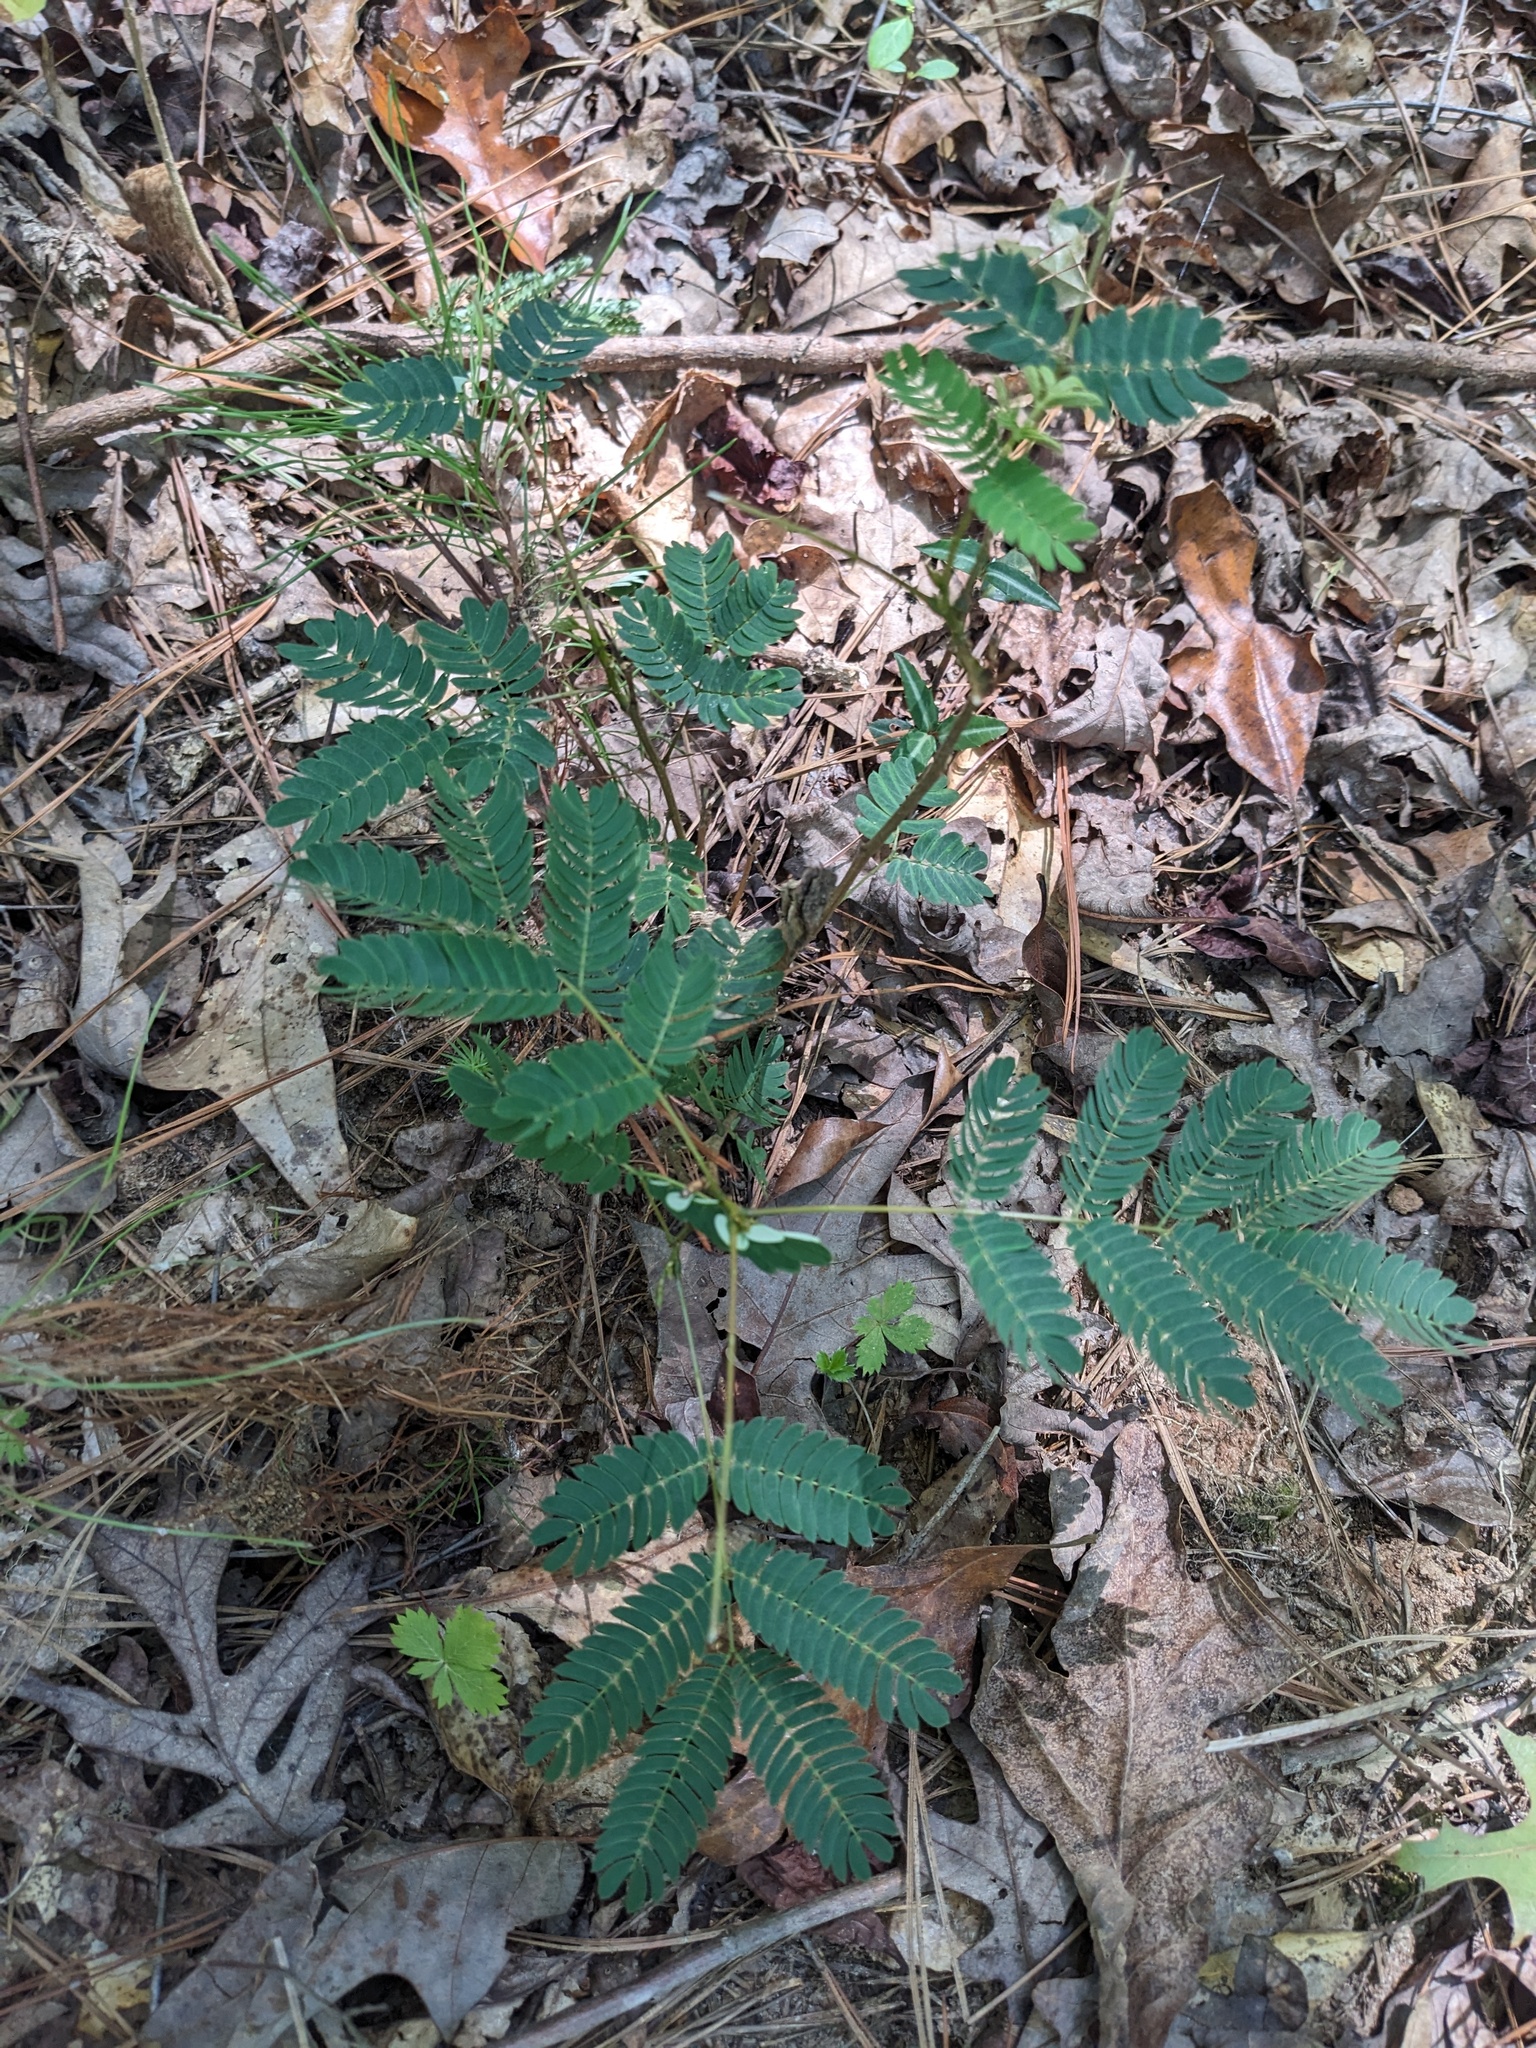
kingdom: Plantae
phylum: Tracheophyta
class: Magnoliopsida
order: Fabales
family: Fabaceae
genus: Albizia
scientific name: Albizia julibrissin
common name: Silktree
